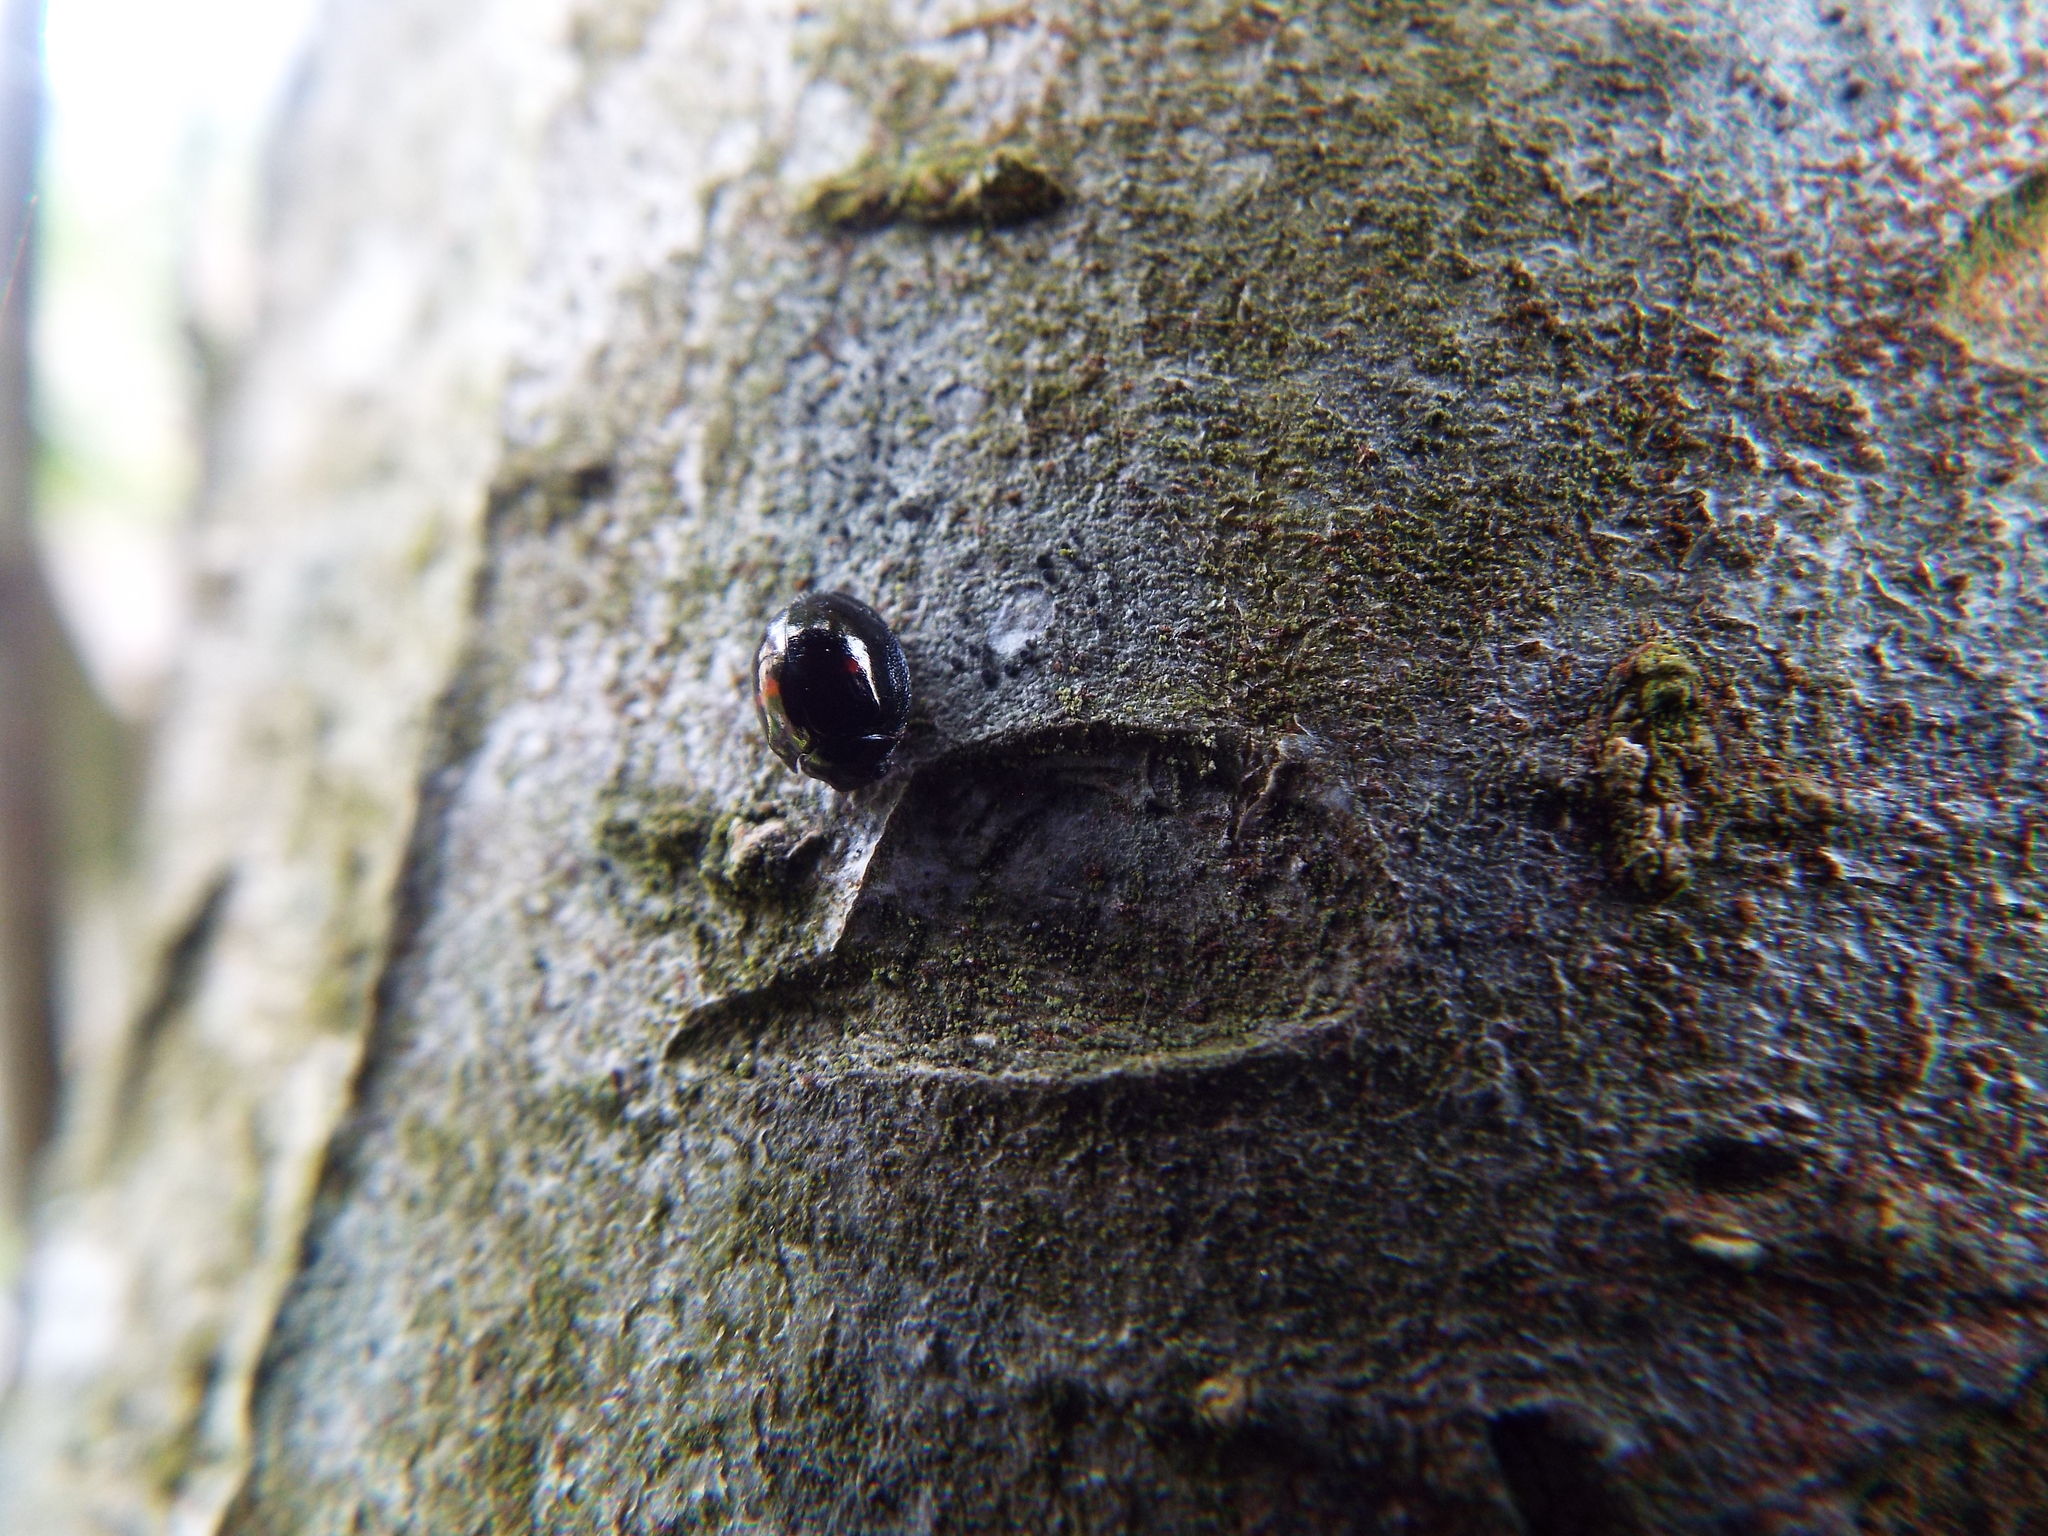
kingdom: Animalia
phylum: Arthropoda
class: Insecta
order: Coleoptera
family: Coccinellidae
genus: Chilocorus
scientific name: Chilocorus bipustulatus
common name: Heather ladybird
